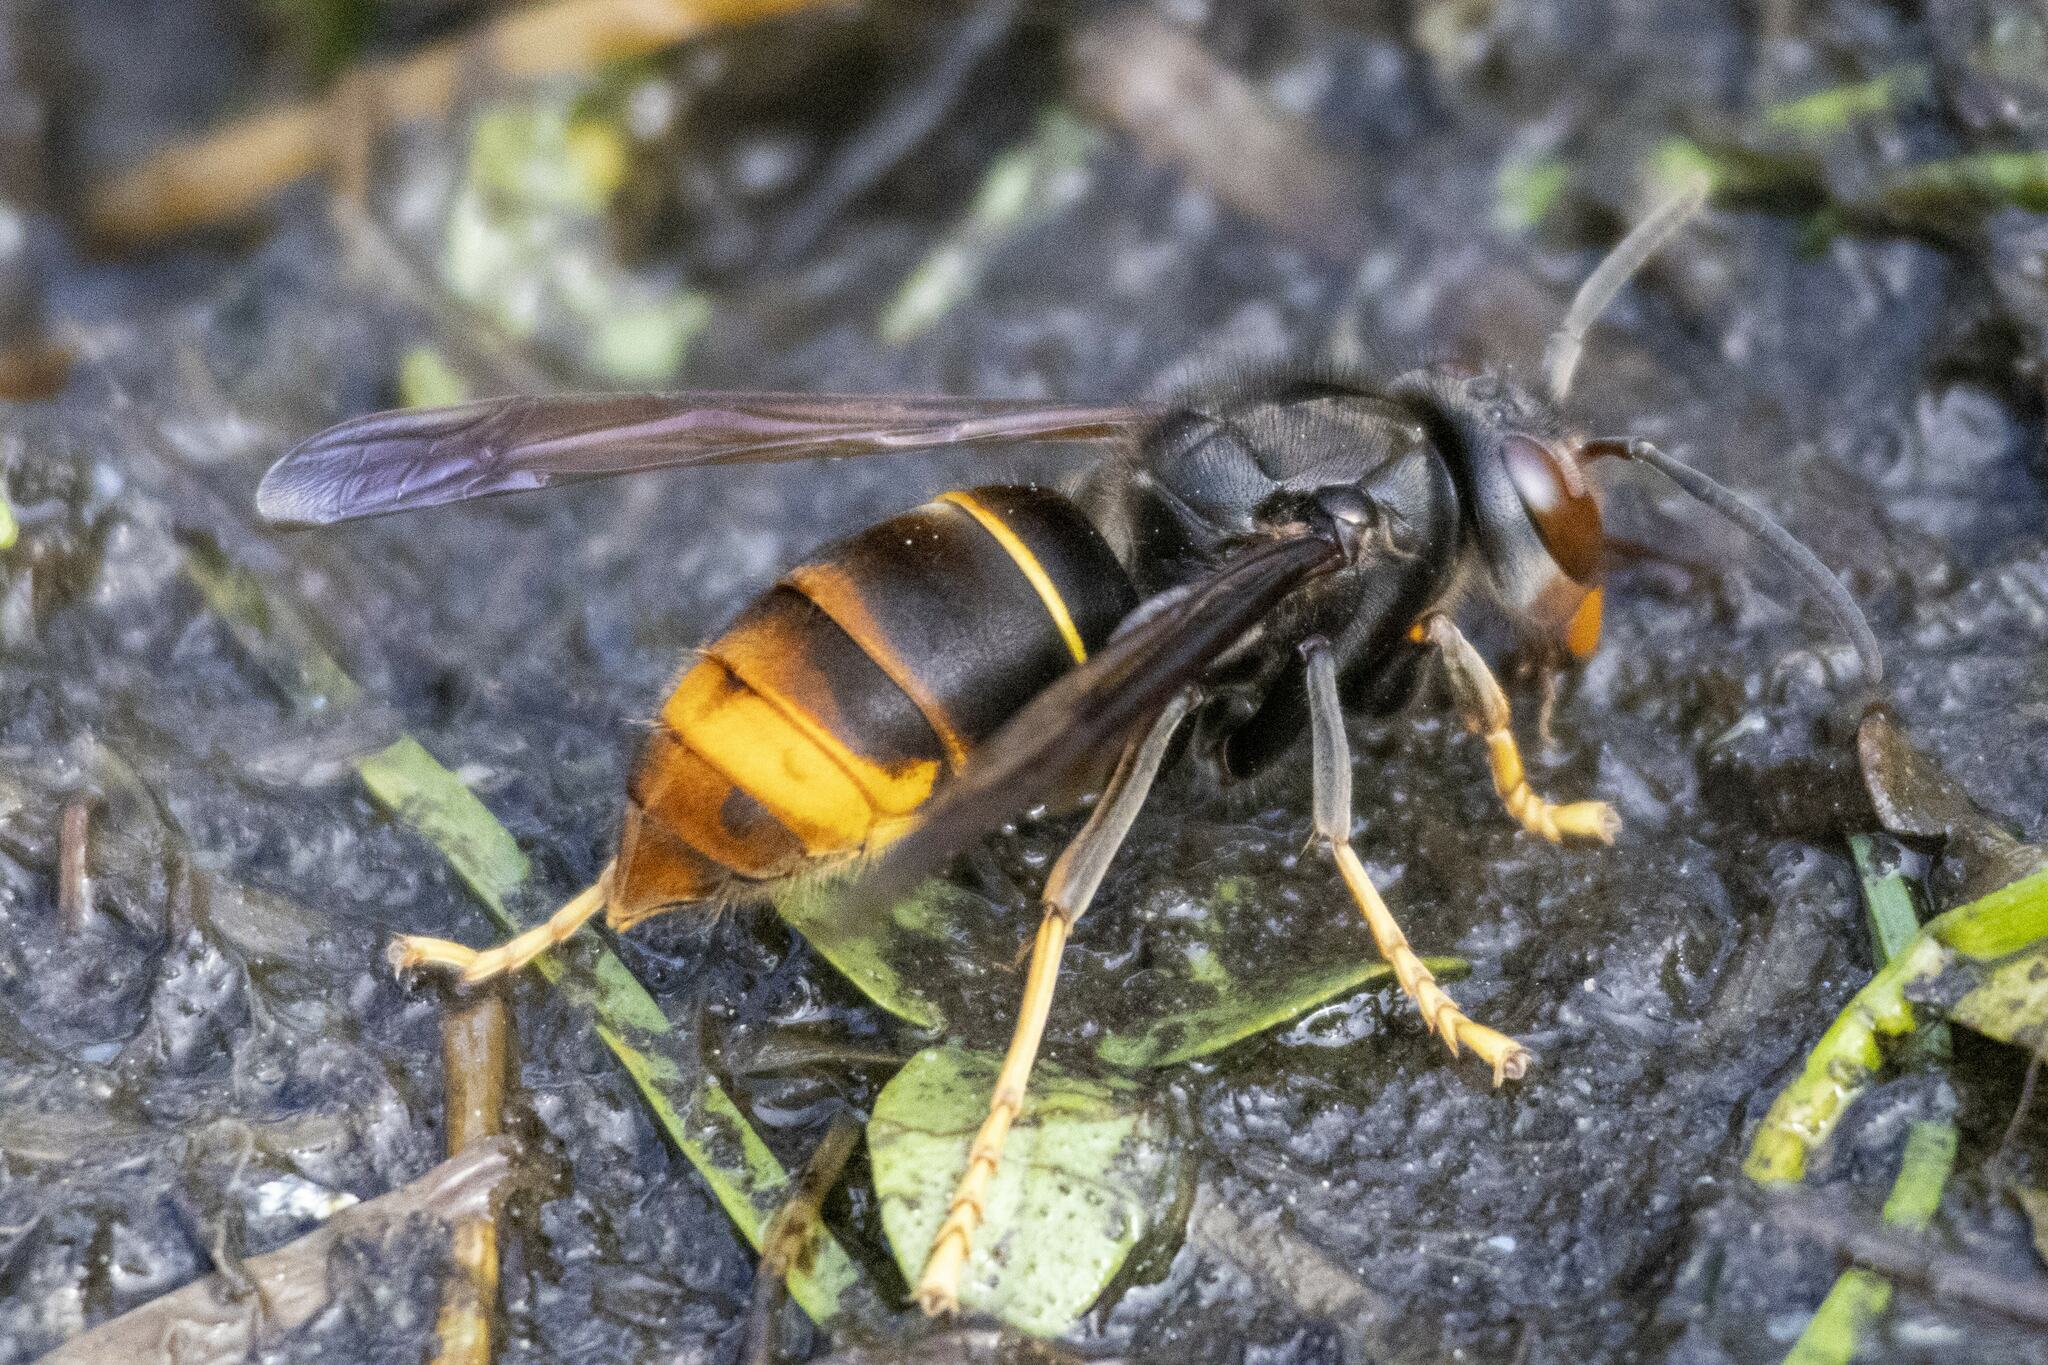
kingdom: Animalia
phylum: Arthropoda
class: Insecta
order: Hymenoptera
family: Vespidae
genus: Vespa
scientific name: Vespa velutina
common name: Asian hornet
